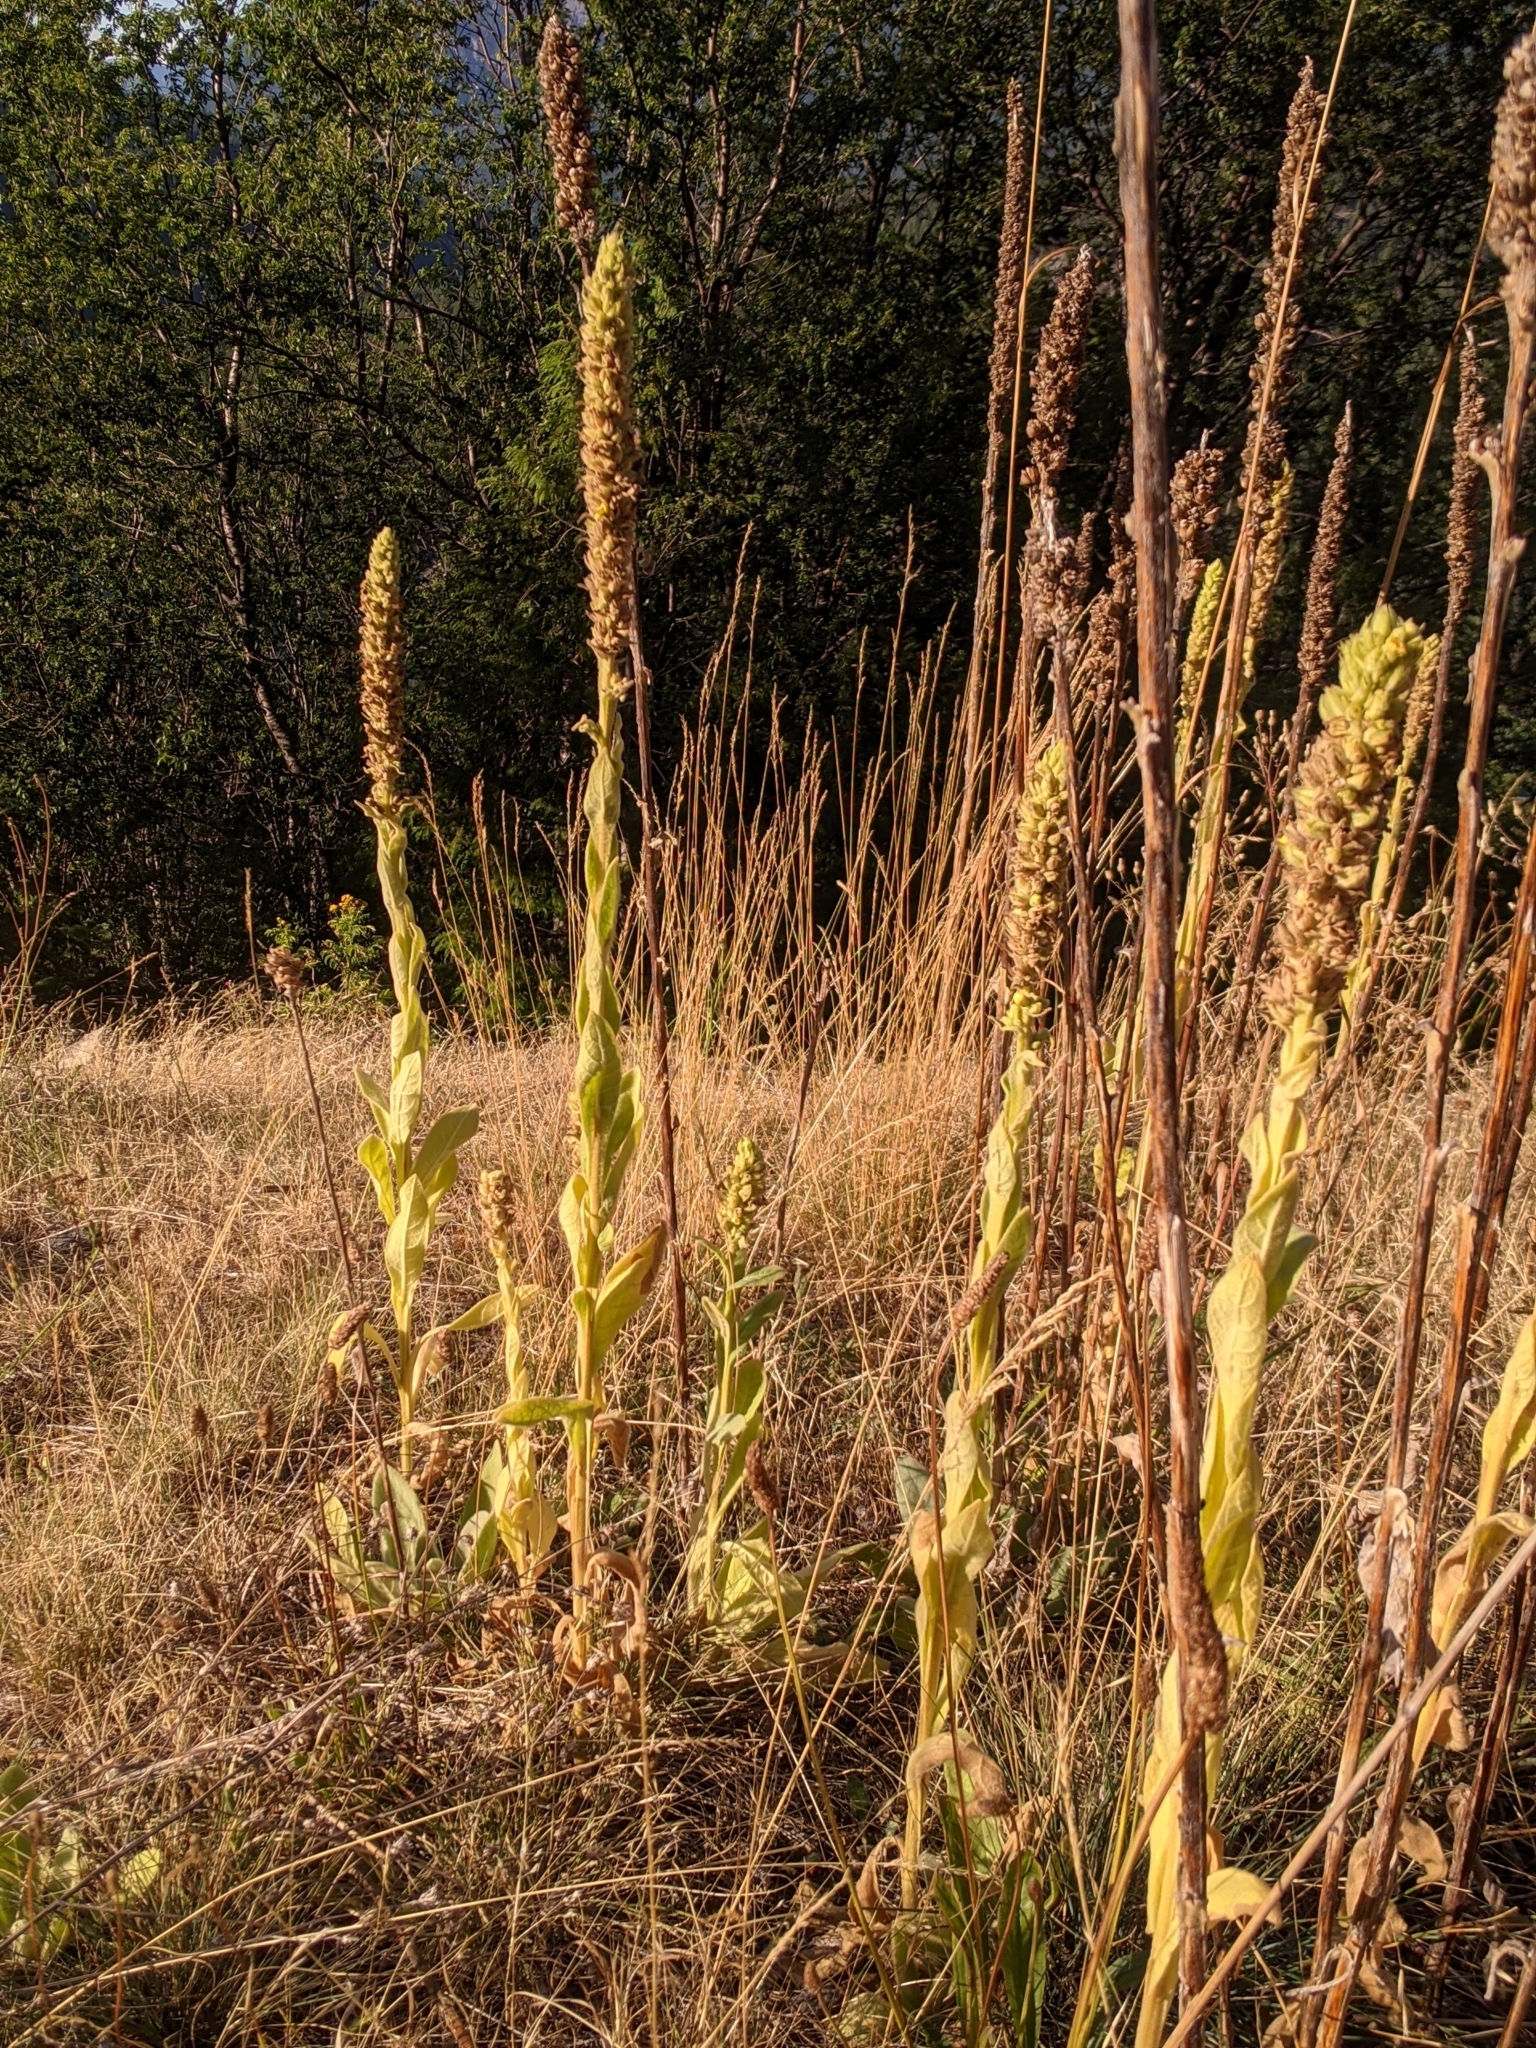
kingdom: Plantae
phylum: Tracheophyta
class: Magnoliopsida
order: Lamiales
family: Scrophulariaceae
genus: Verbascum
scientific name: Verbascum thapsus
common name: Common mullein
